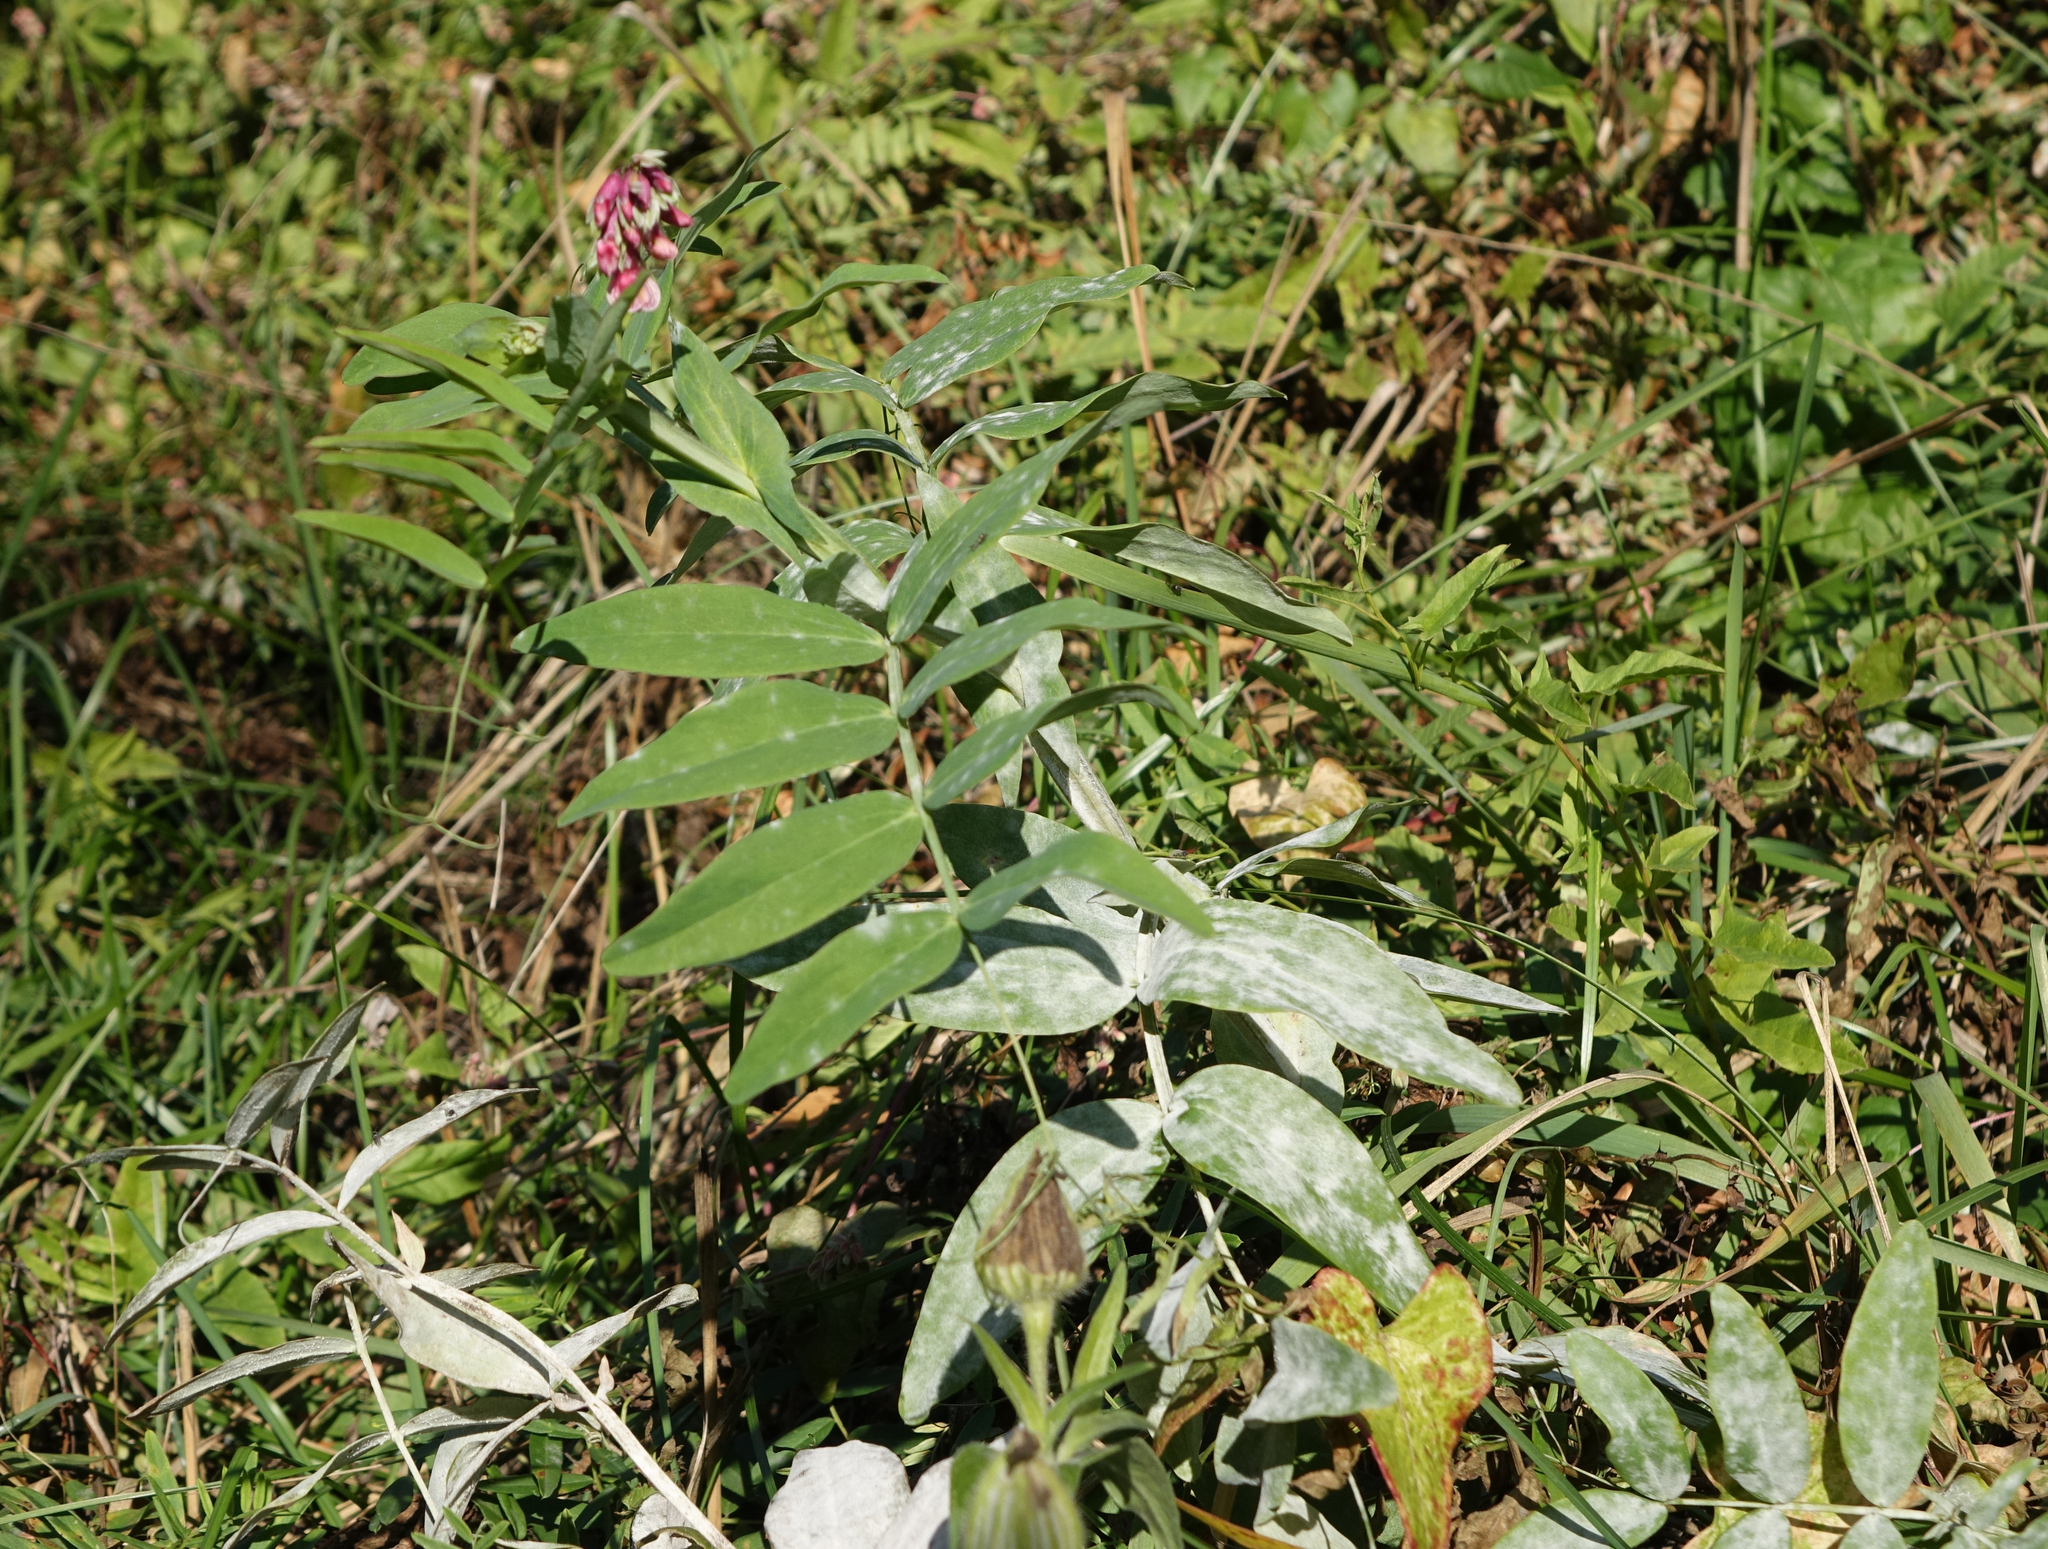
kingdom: Plantae
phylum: Tracheophyta
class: Magnoliopsida
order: Fabales
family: Fabaceae
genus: Lathyrus
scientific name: Lathyrus pisiformis
